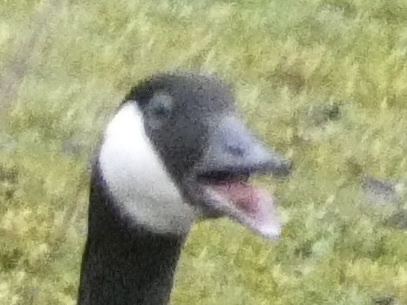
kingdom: Animalia
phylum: Chordata
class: Aves
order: Anseriformes
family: Anatidae
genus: Branta
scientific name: Branta canadensis
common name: Canada goose
